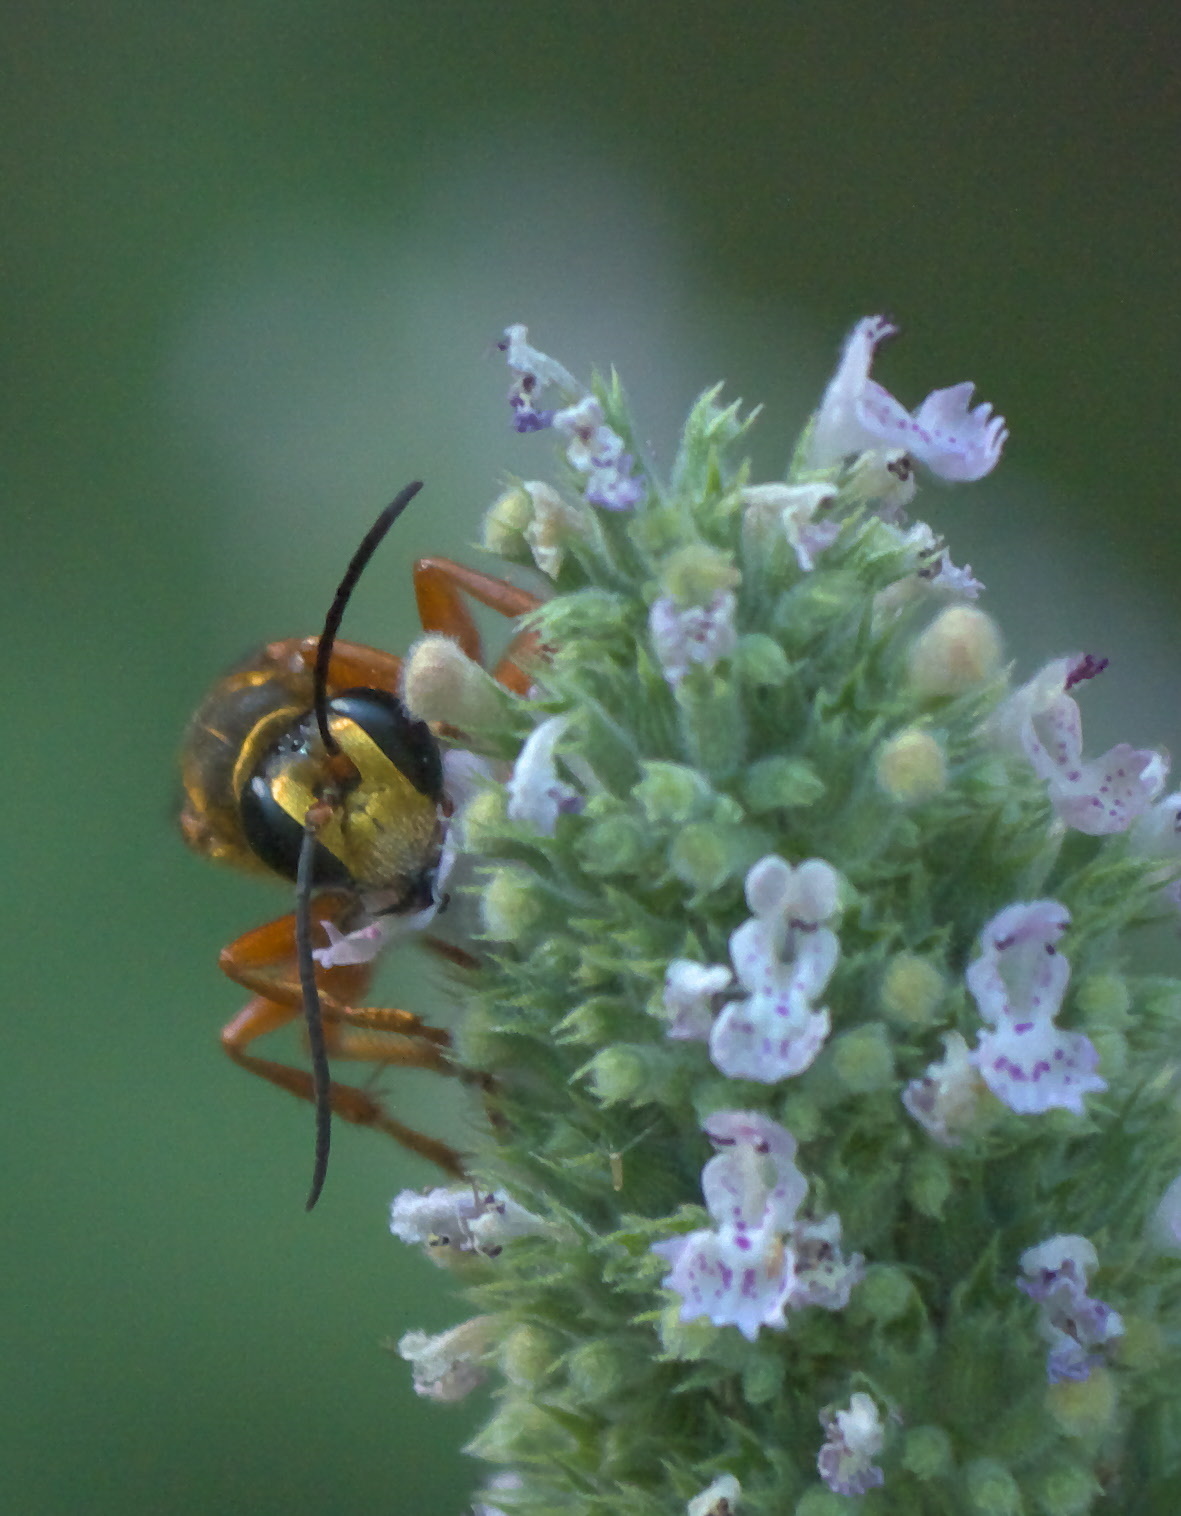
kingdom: Animalia
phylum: Arthropoda
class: Insecta
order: Hymenoptera
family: Sphecidae
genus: Sphex
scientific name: Sphex ichneumoneus
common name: Great golden digger wasp
